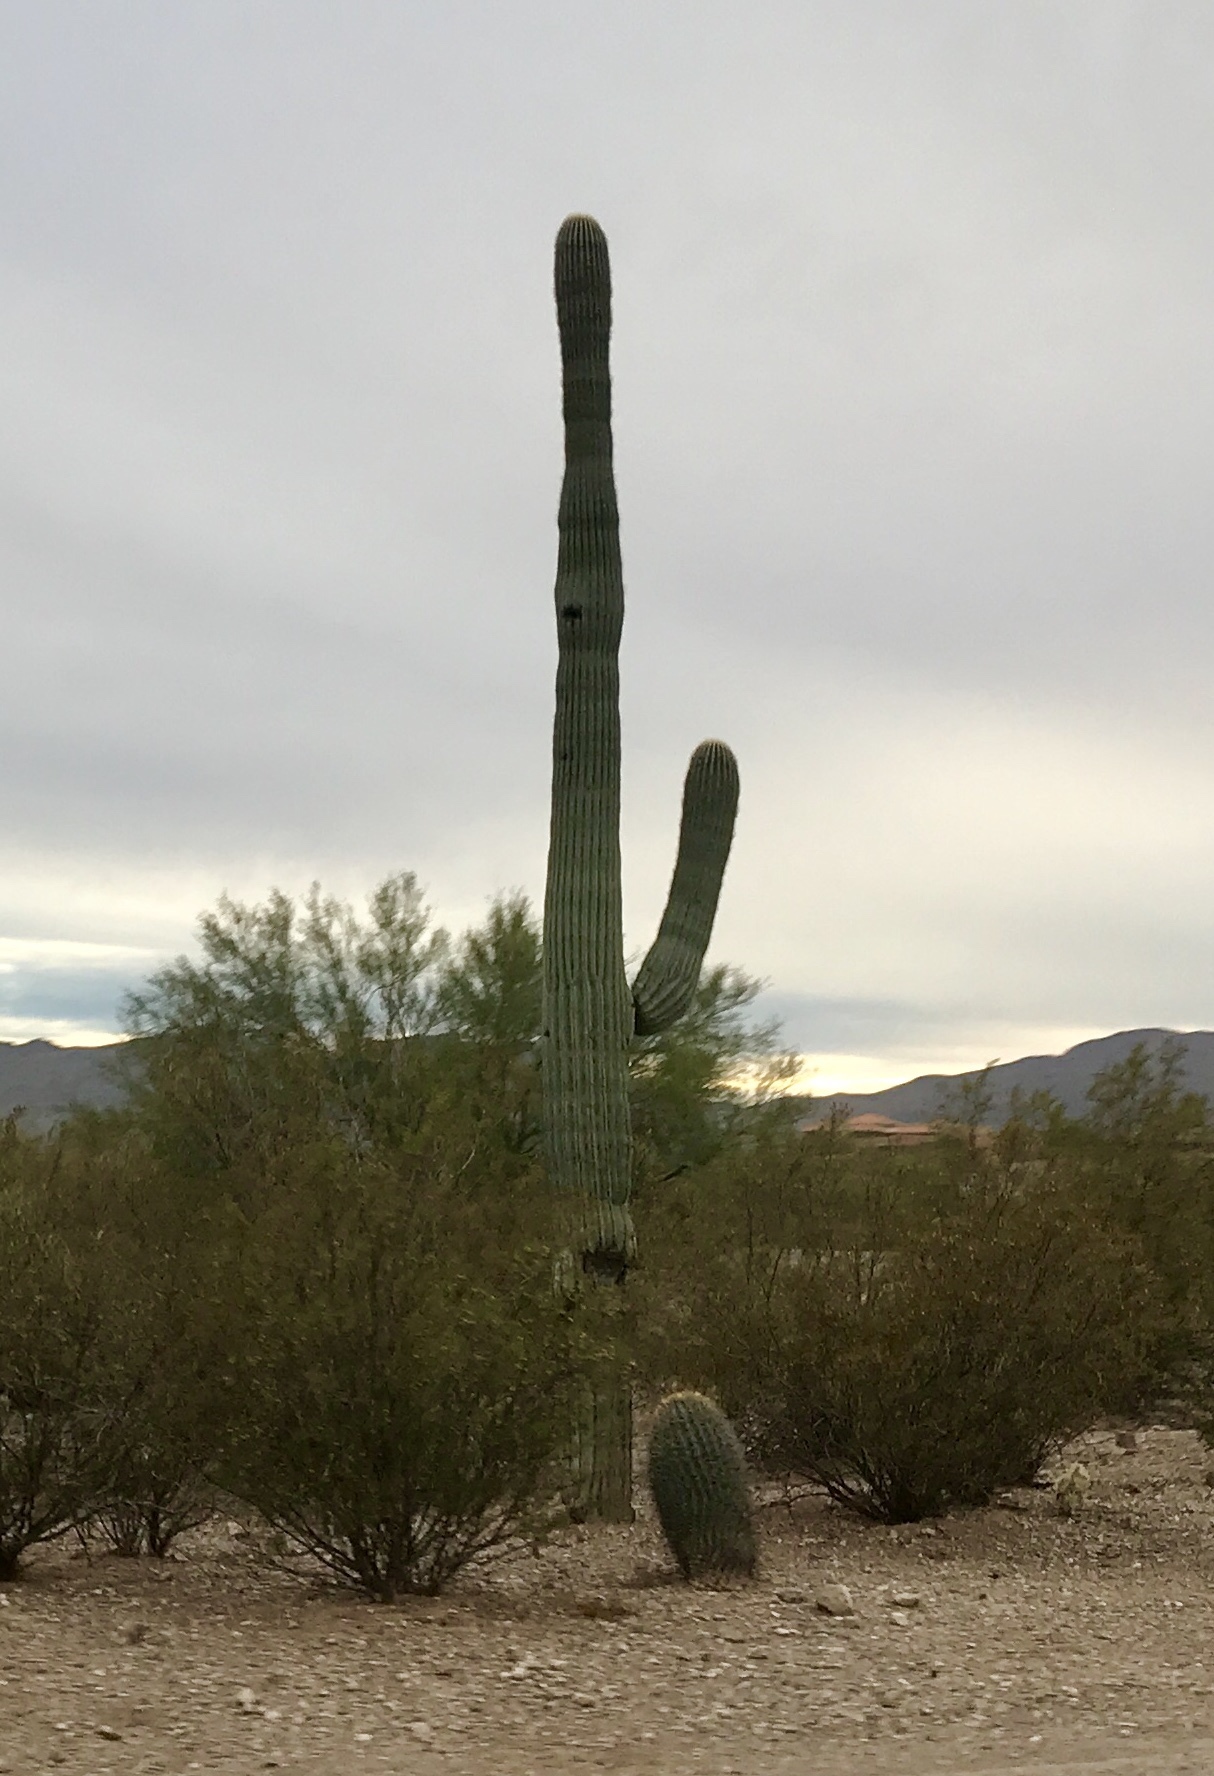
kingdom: Plantae
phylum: Tracheophyta
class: Magnoliopsida
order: Caryophyllales
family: Cactaceae
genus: Carnegiea
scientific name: Carnegiea gigantea
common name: Saguaro
